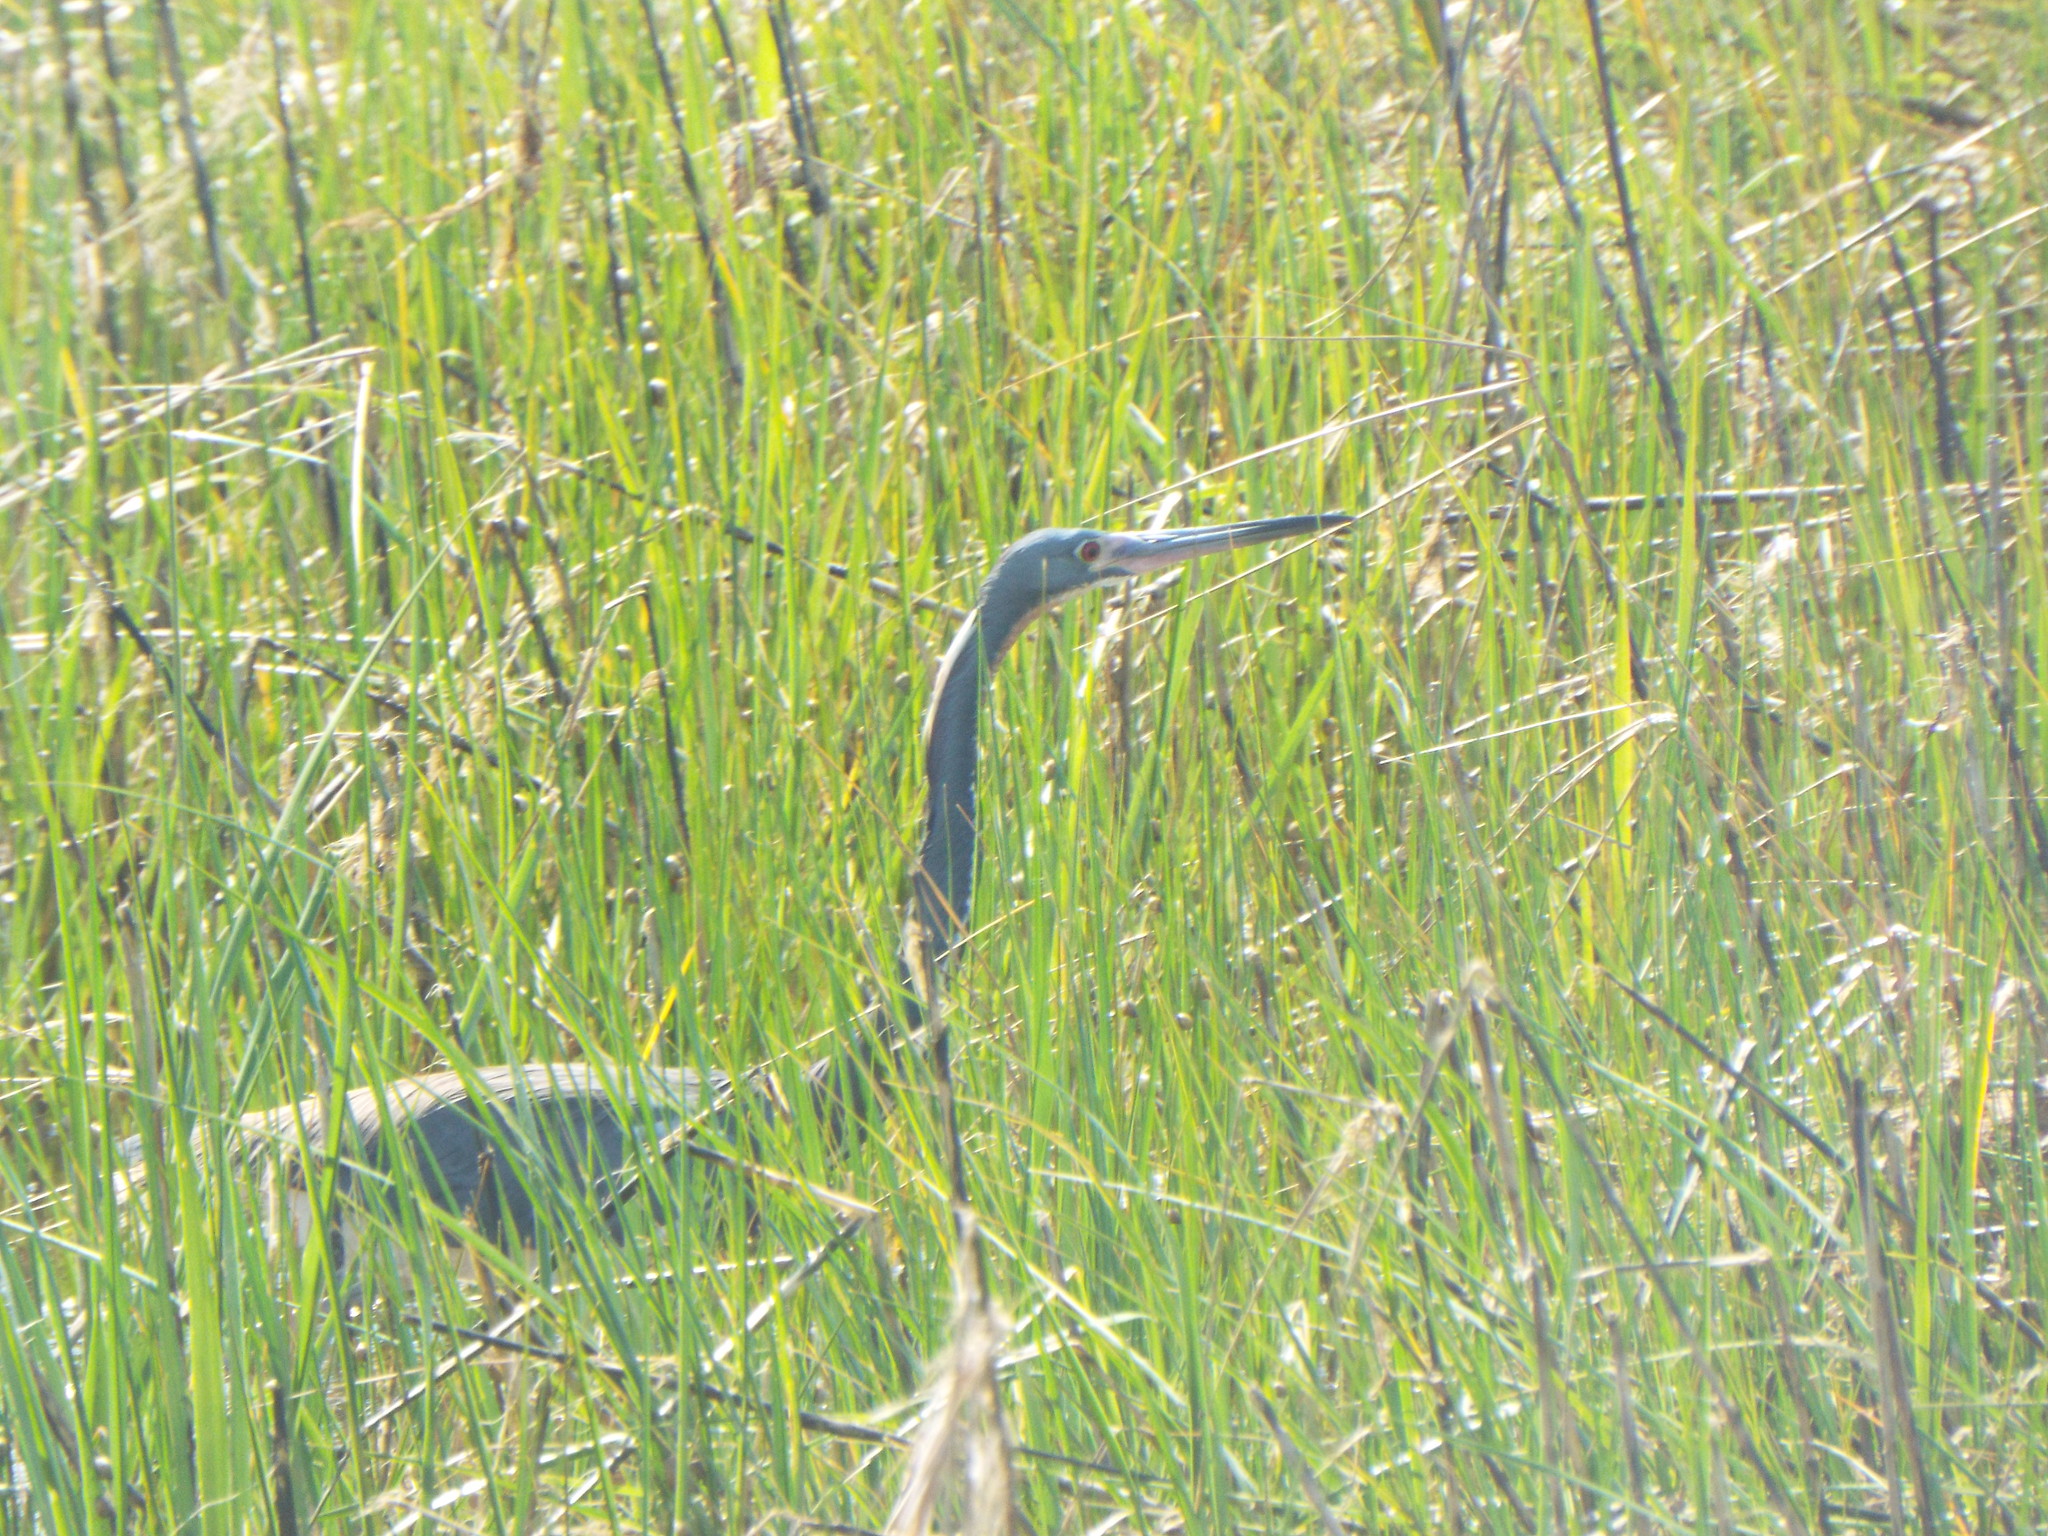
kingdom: Animalia
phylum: Chordata
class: Aves
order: Pelecaniformes
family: Ardeidae
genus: Egretta
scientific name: Egretta tricolor
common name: Tricolored heron
